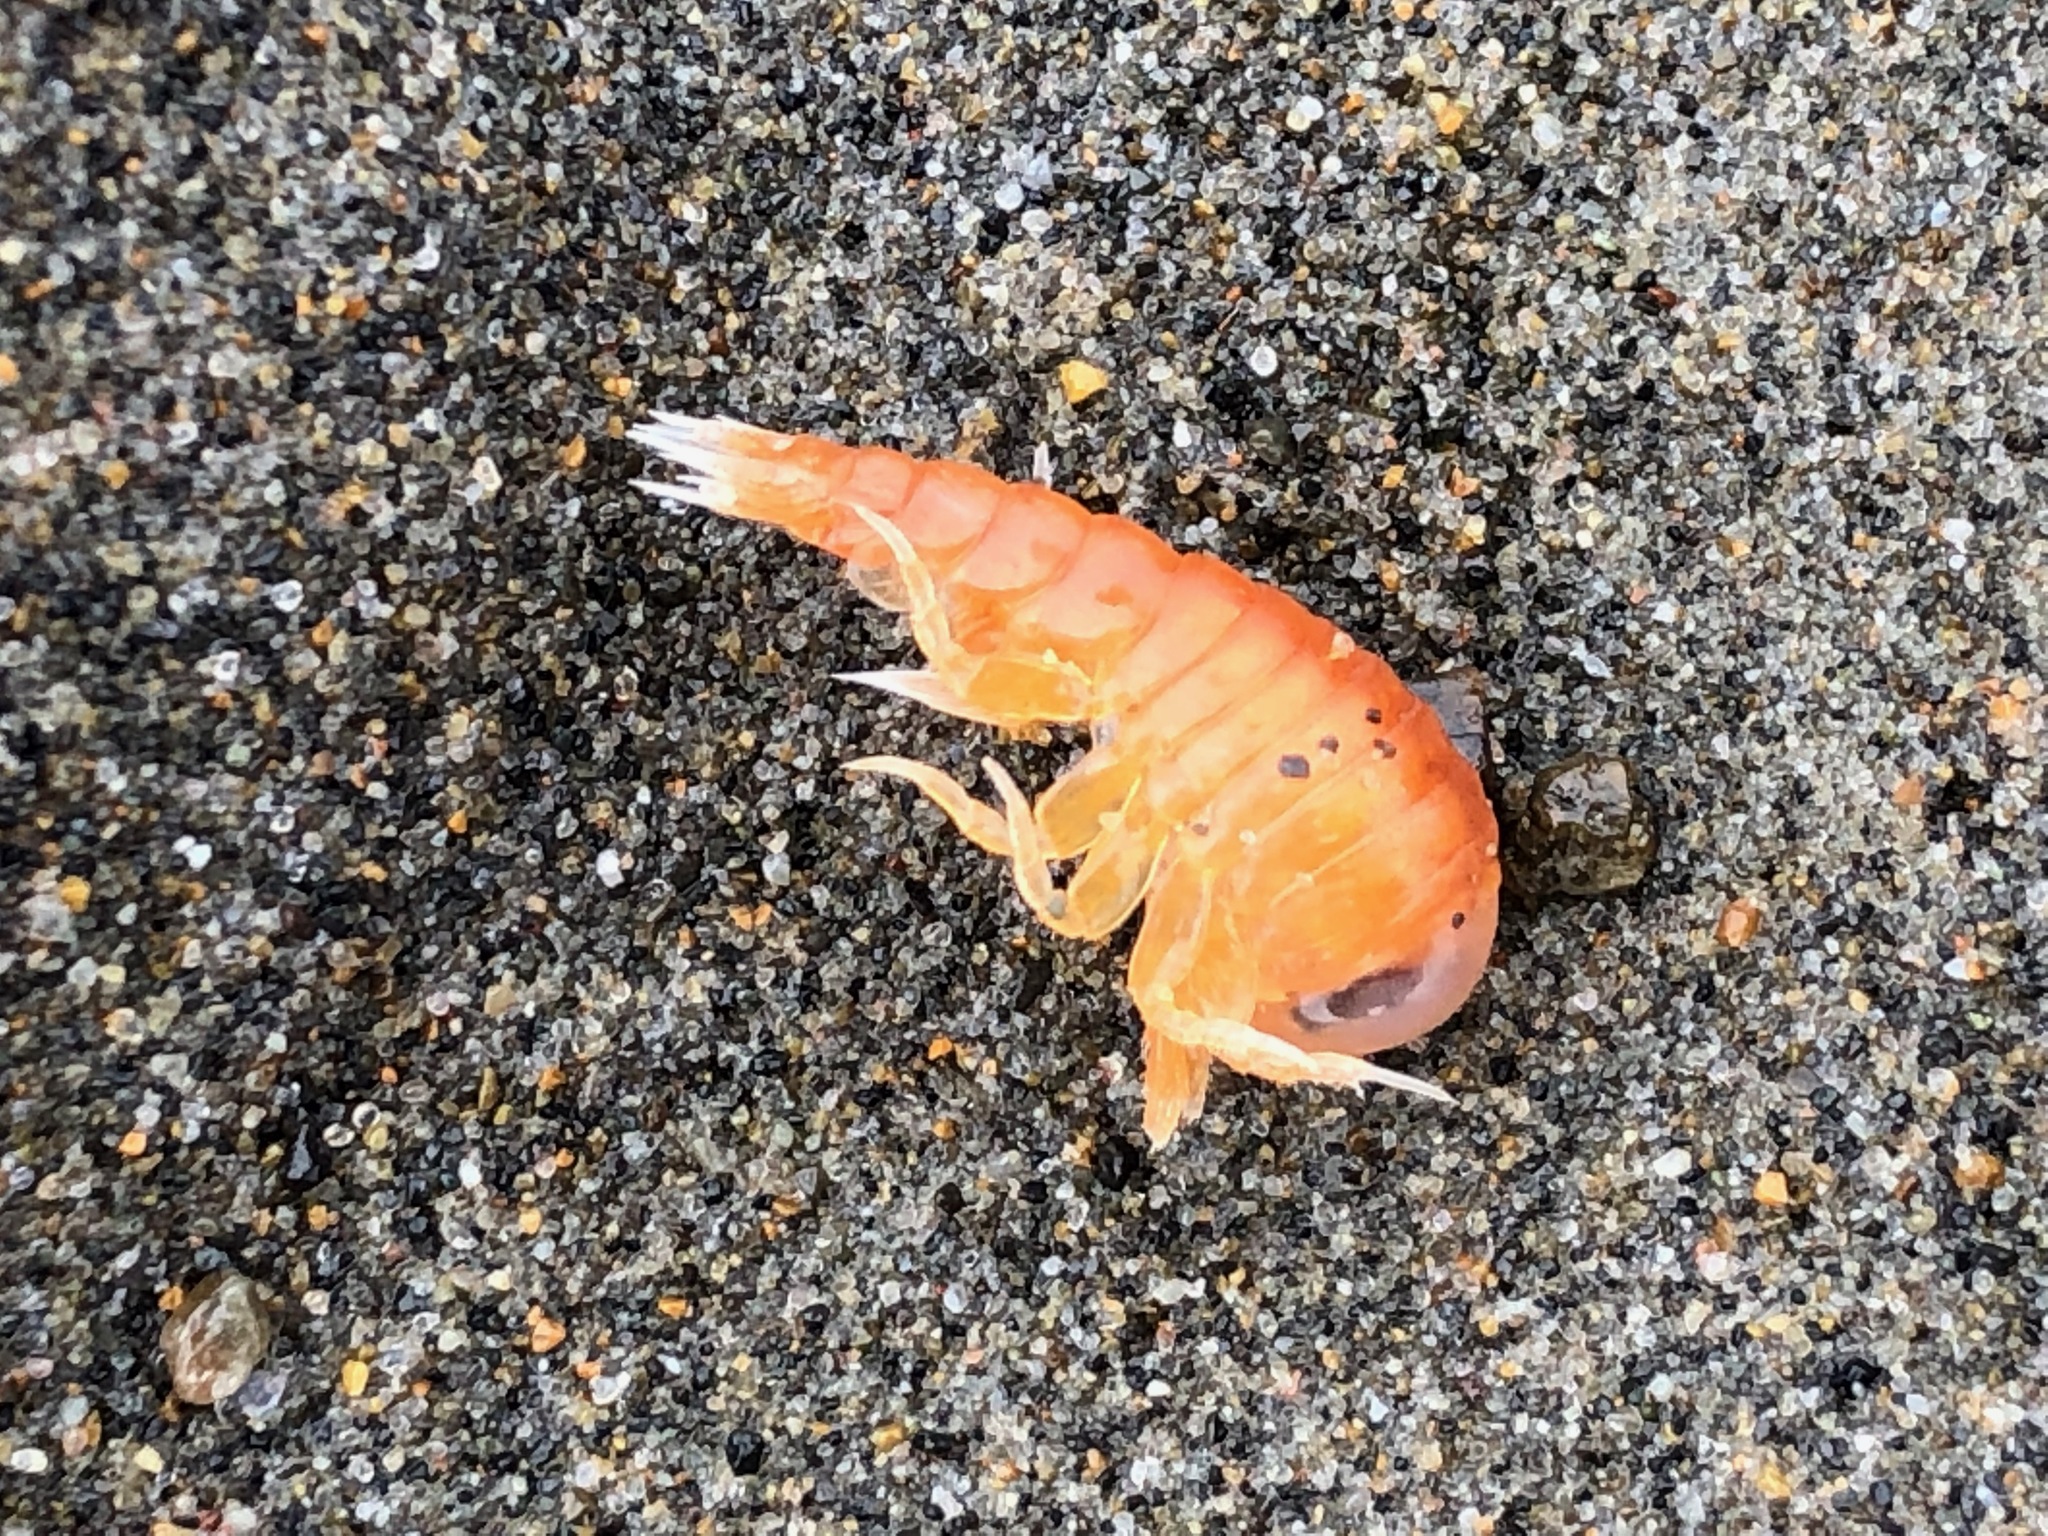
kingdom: Animalia
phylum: Arthropoda
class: Malacostraca
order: Amphipoda
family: Hyperiidae
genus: Hyperia
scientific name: Hyperia medusarum
